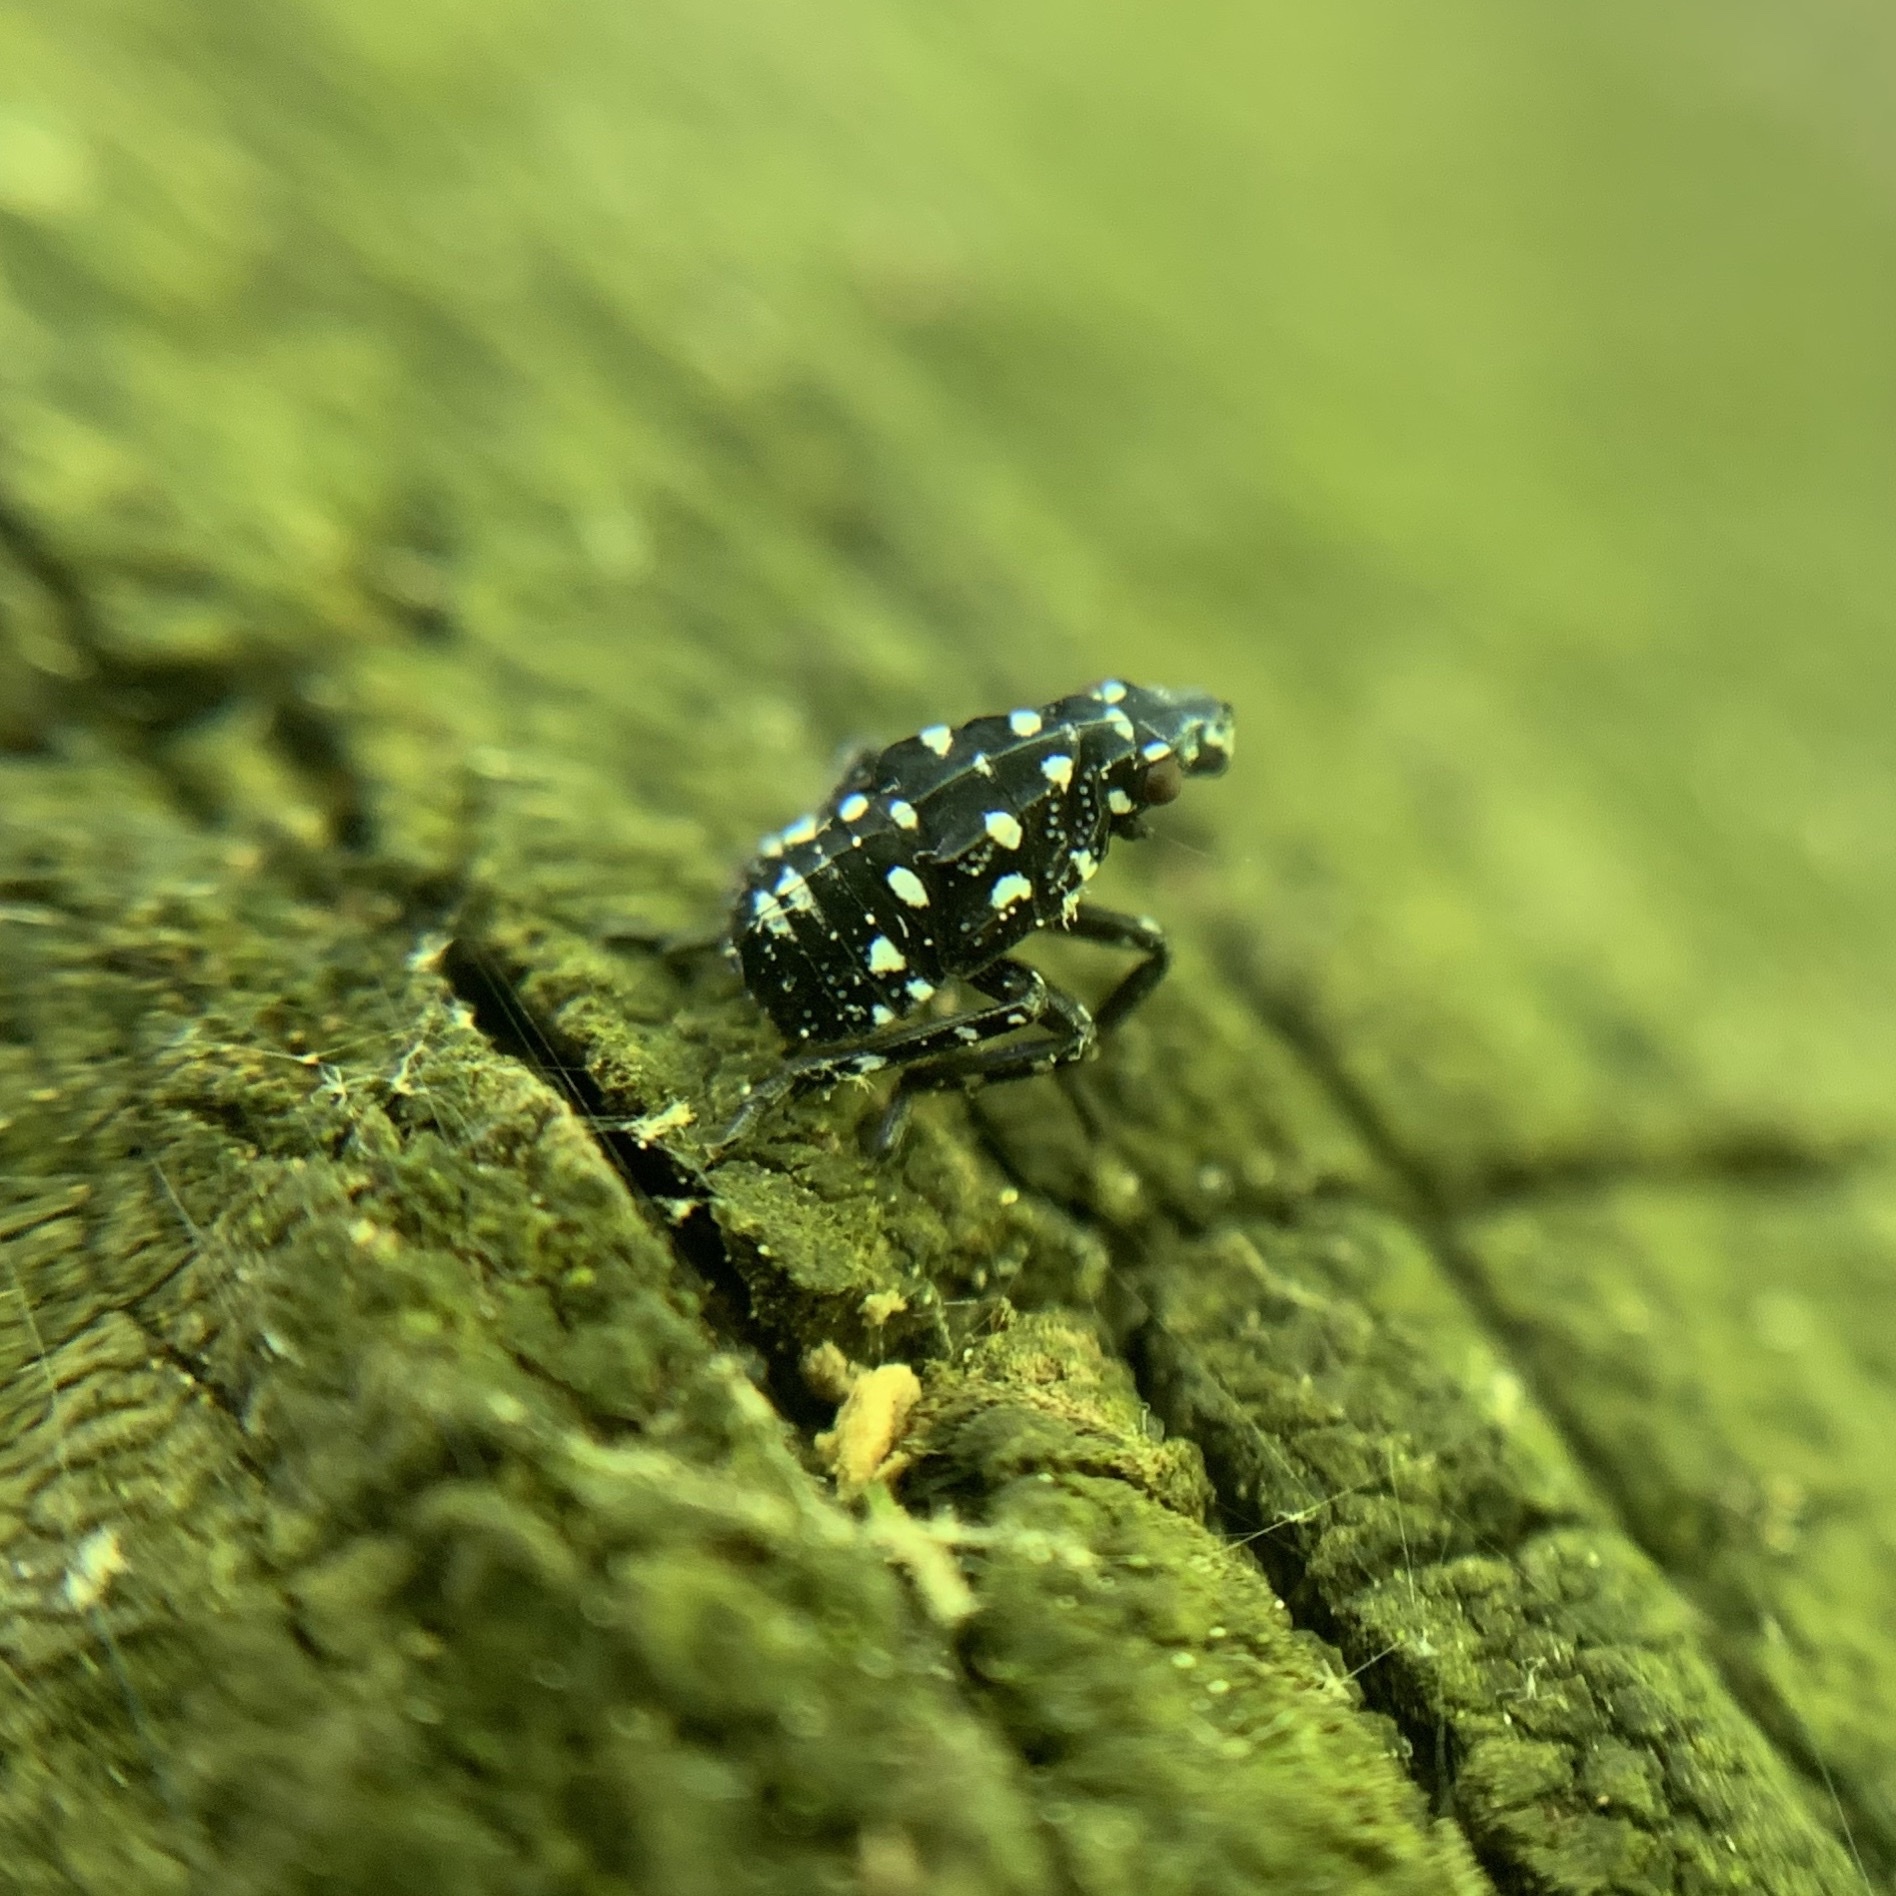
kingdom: Animalia
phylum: Arthropoda
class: Insecta
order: Hemiptera
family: Fulgoridae
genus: Lycorma
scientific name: Lycorma delicatula
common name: Spotted lanternfly
